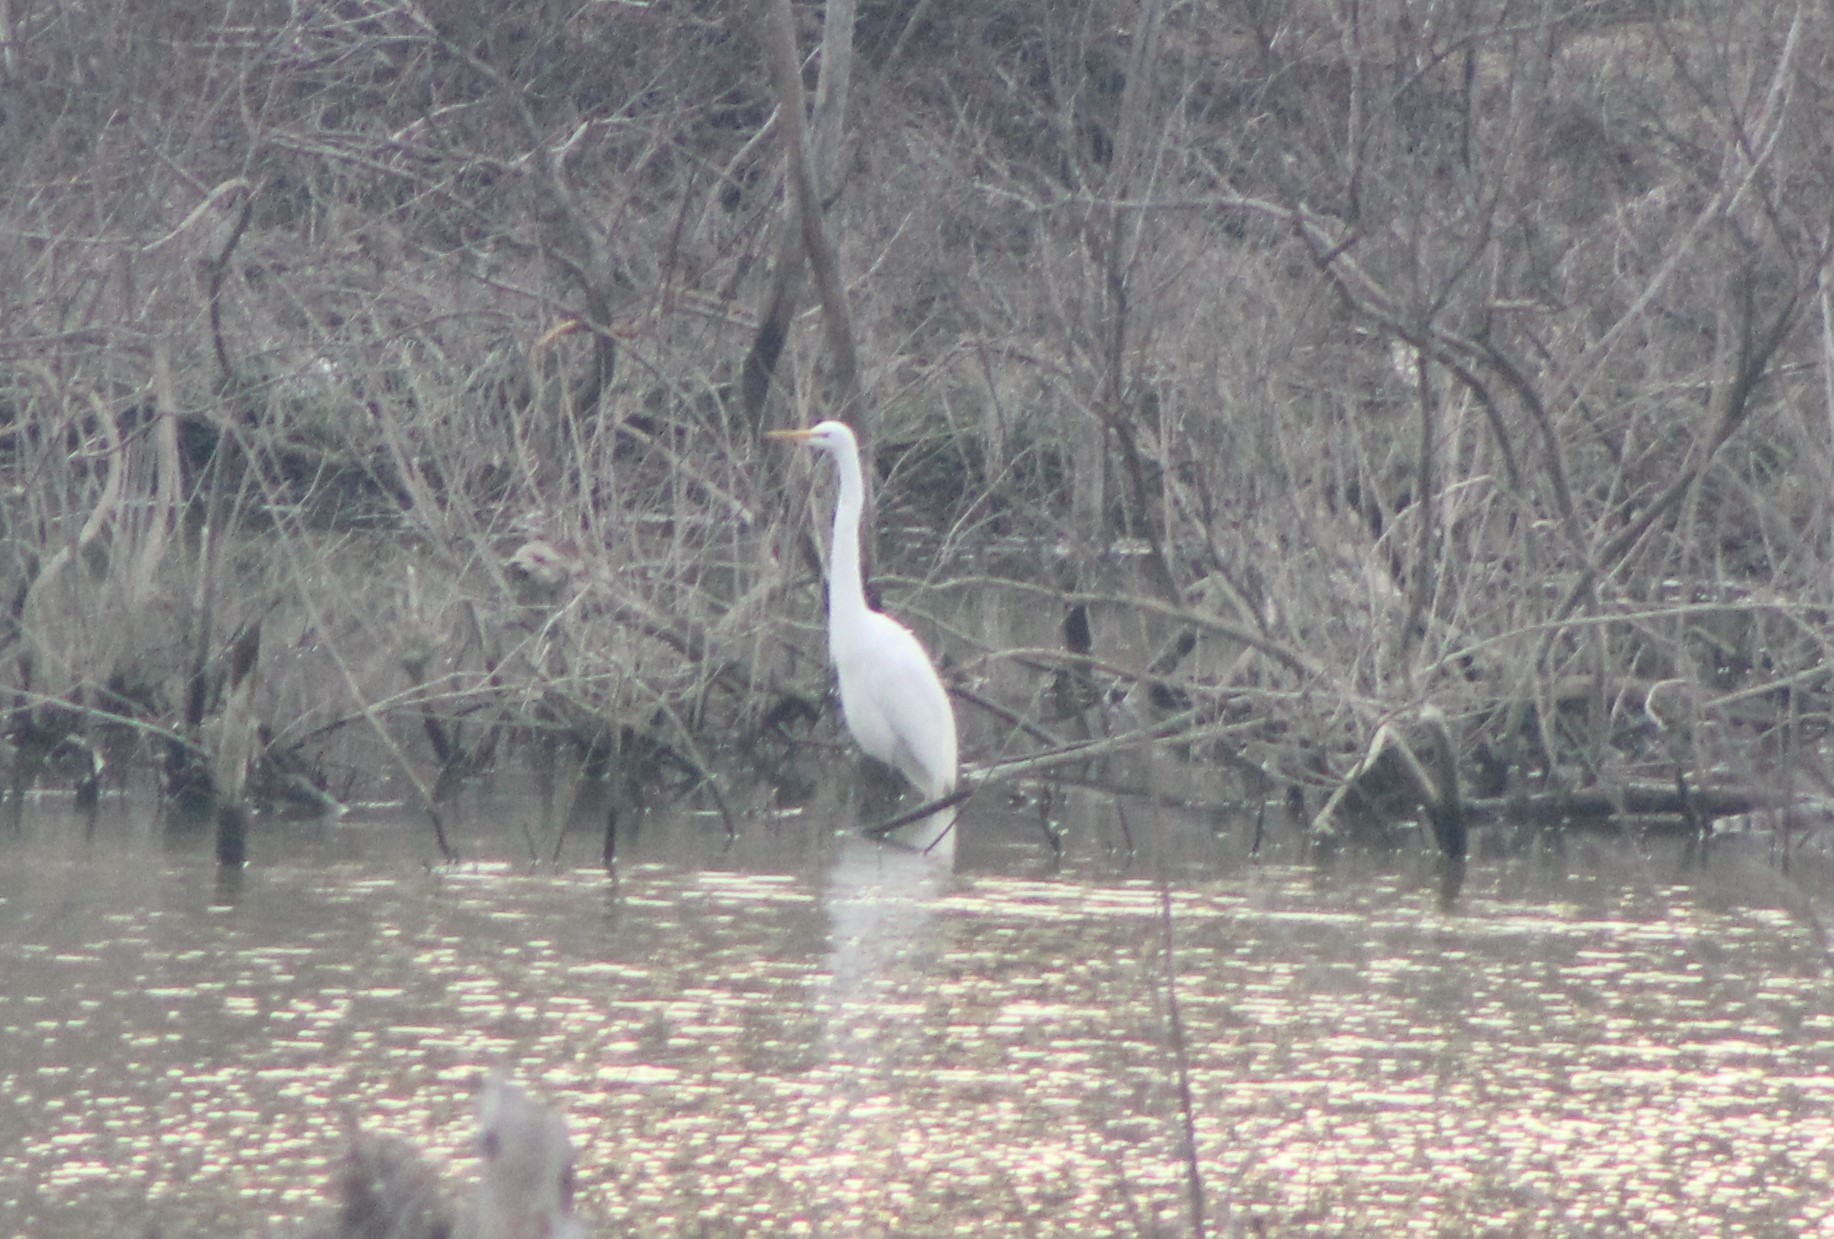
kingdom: Animalia
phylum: Chordata
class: Aves
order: Pelecaniformes
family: Ardeidae
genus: Ardea
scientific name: Ardea alba
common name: Great egret
